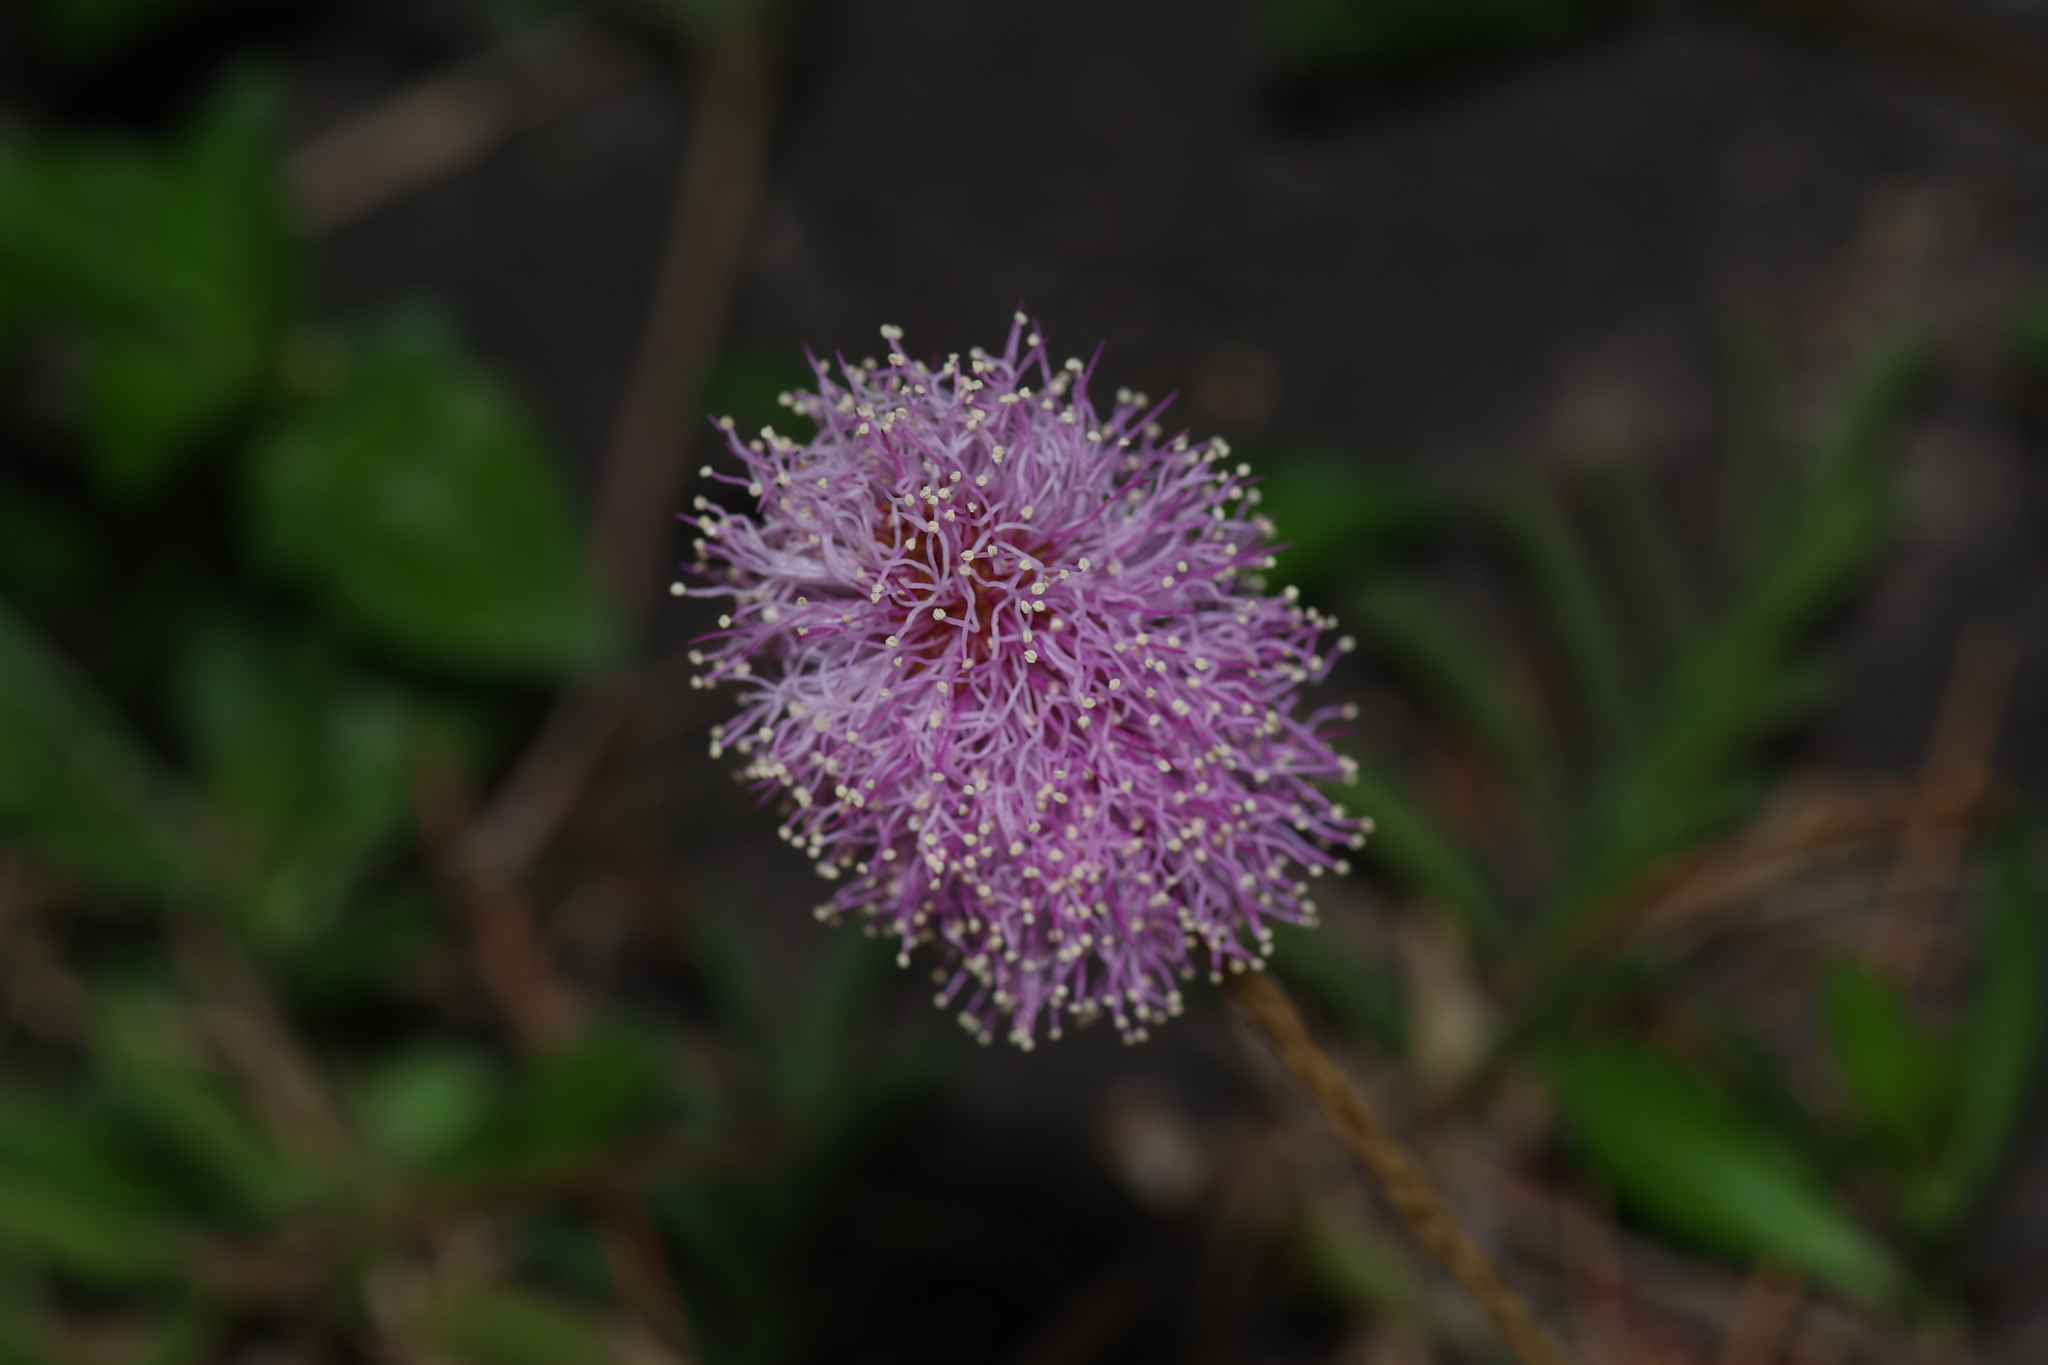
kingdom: Plantae
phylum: Tracheophyta
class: Magnoliopsida
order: Fabales
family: Fabaceae
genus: Mimosa
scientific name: Mimosa strigillosa
